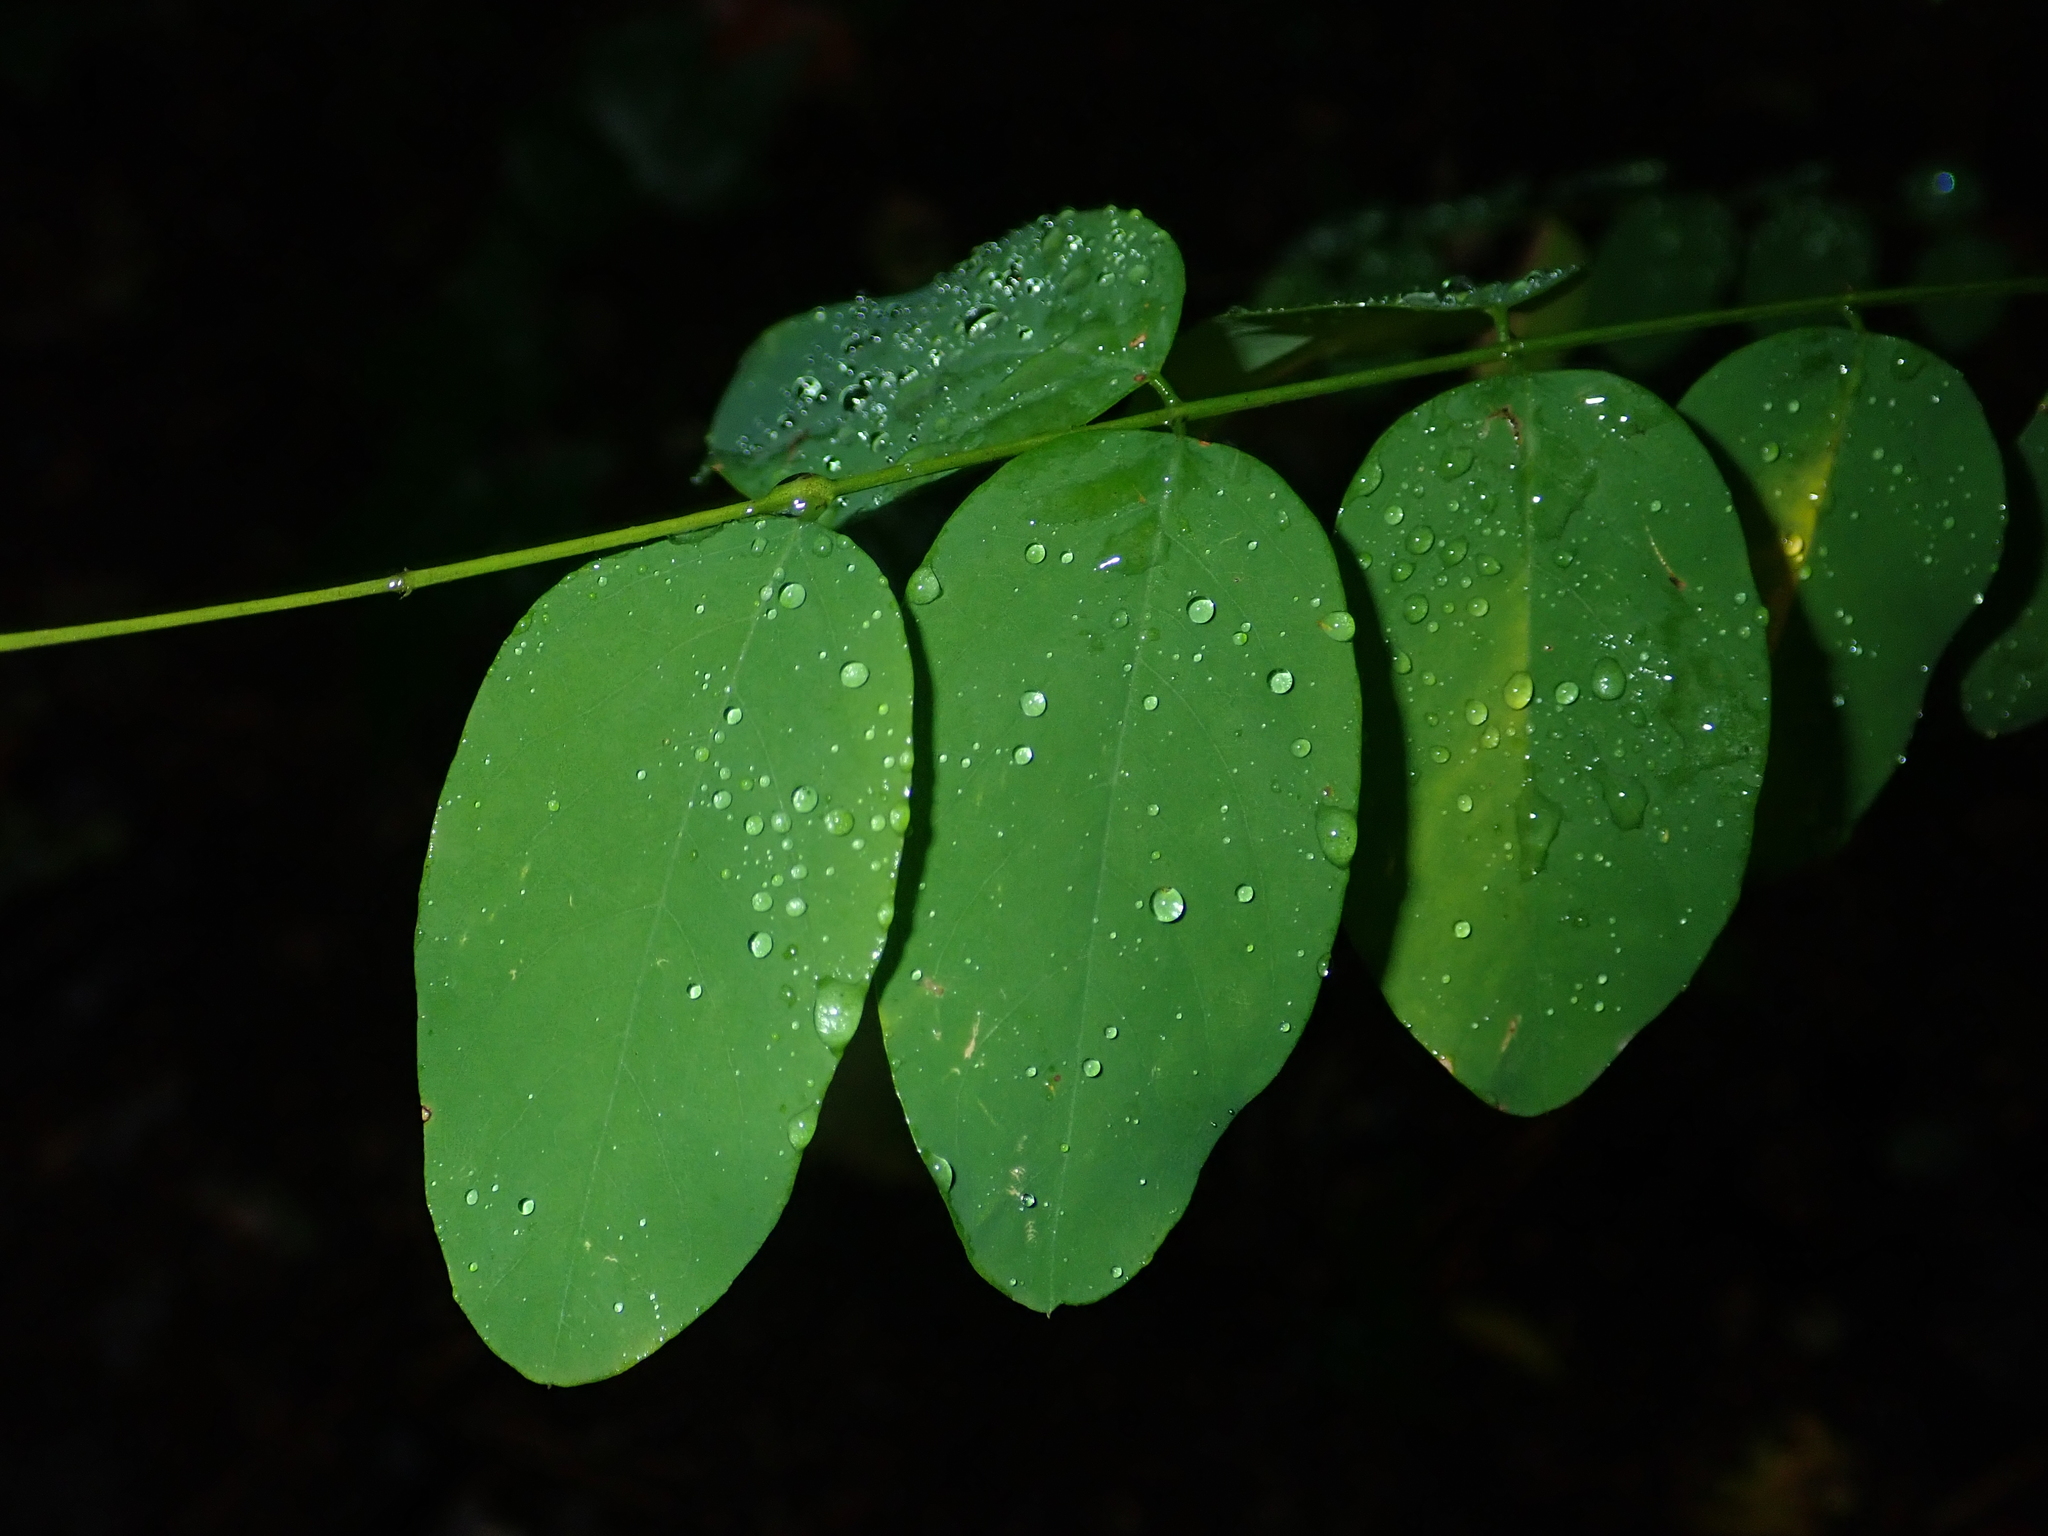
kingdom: Plantae
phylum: Tracheophyta
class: Magnoliopsida
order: Fabales
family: Fabaceae
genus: Robinia
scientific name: Robinia pseudoacacia
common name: Black locust
